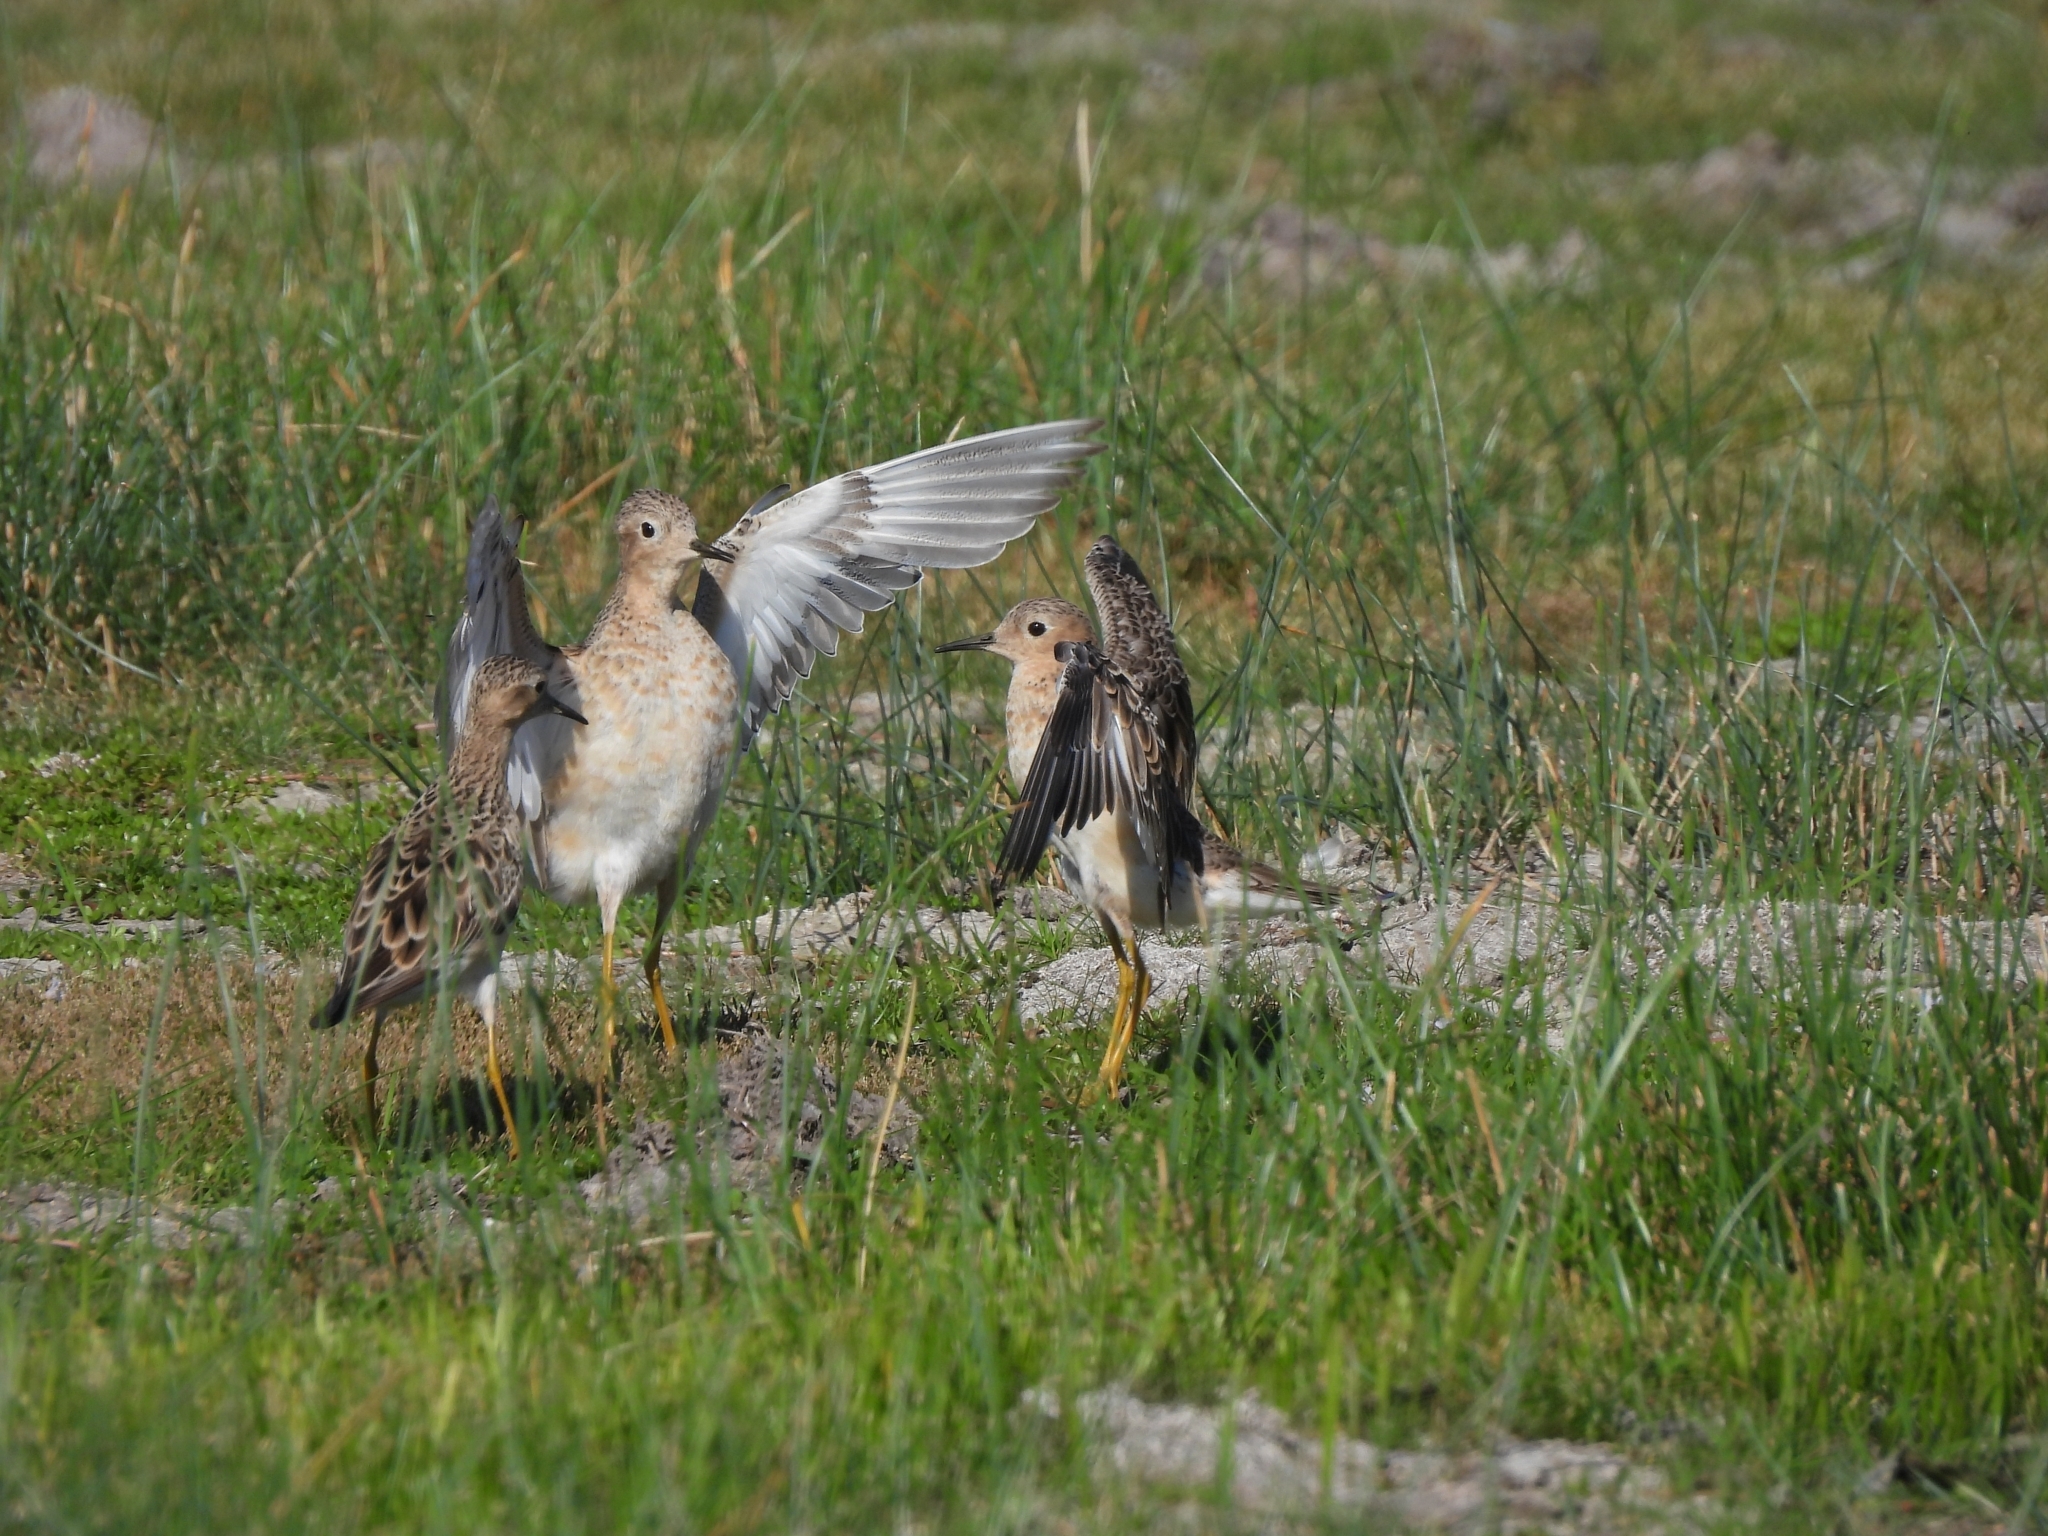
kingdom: Animalia
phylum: Chordata
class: Aves
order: Charadriiformes
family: Scolopacidae
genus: Calidris
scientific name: Calidris subruficollis
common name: Buff-breasted sandpiper
